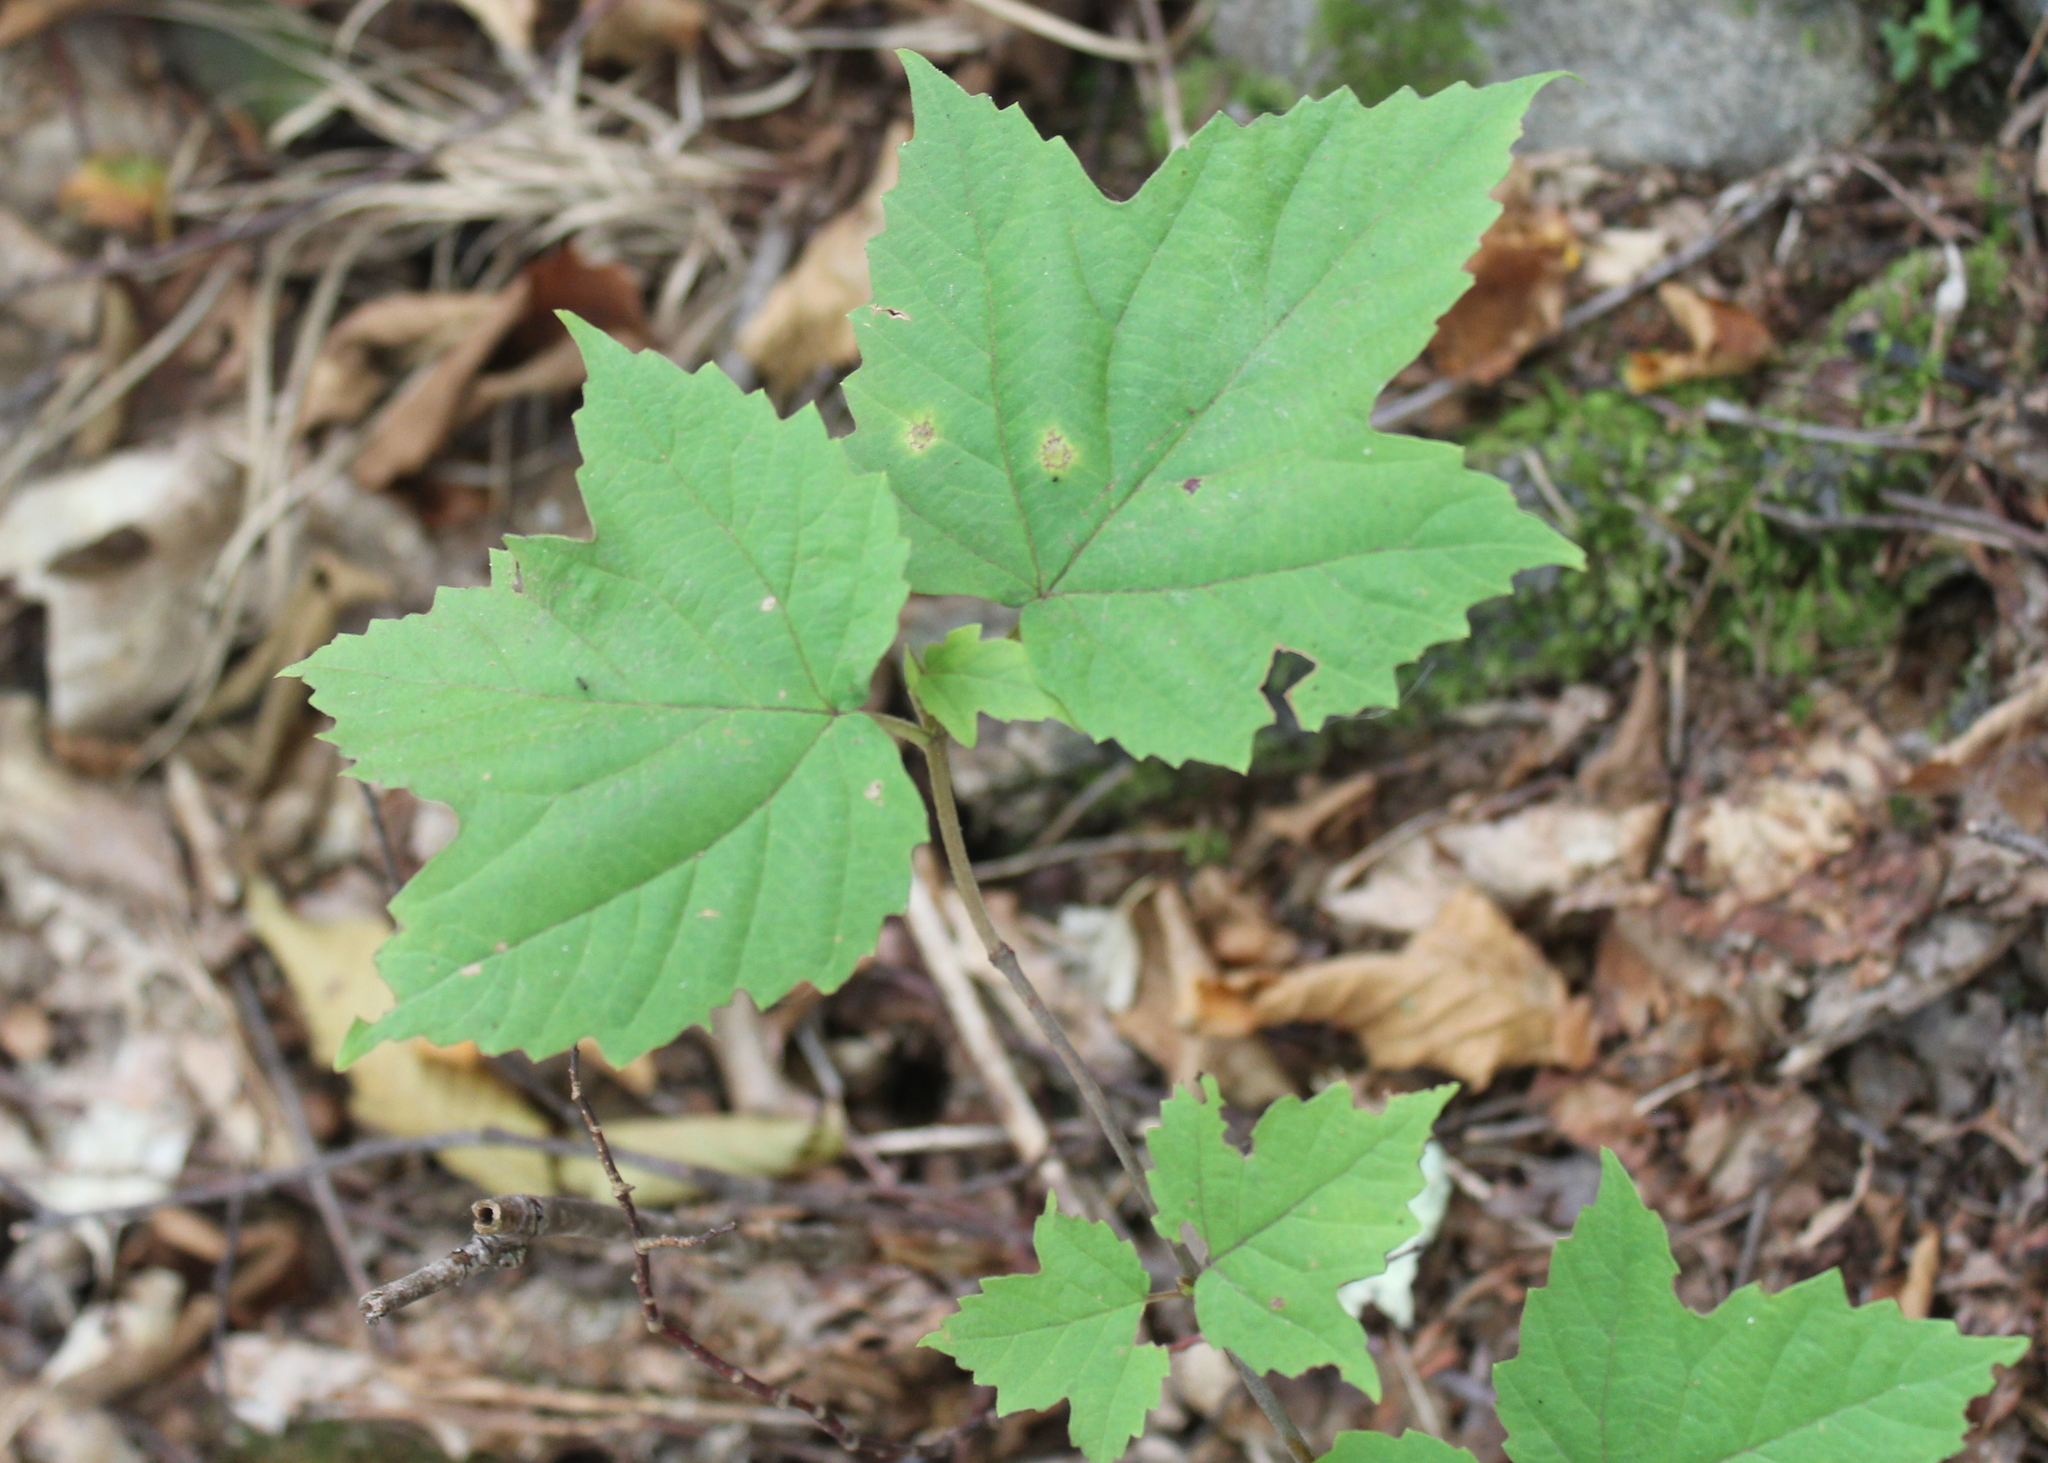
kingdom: Plantae
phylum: Tracheophyta
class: Magnoliopsida
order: Dipsacales
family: Viburnaceae
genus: Viburnum
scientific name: Viburnum acerifolium
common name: Dockmackie
